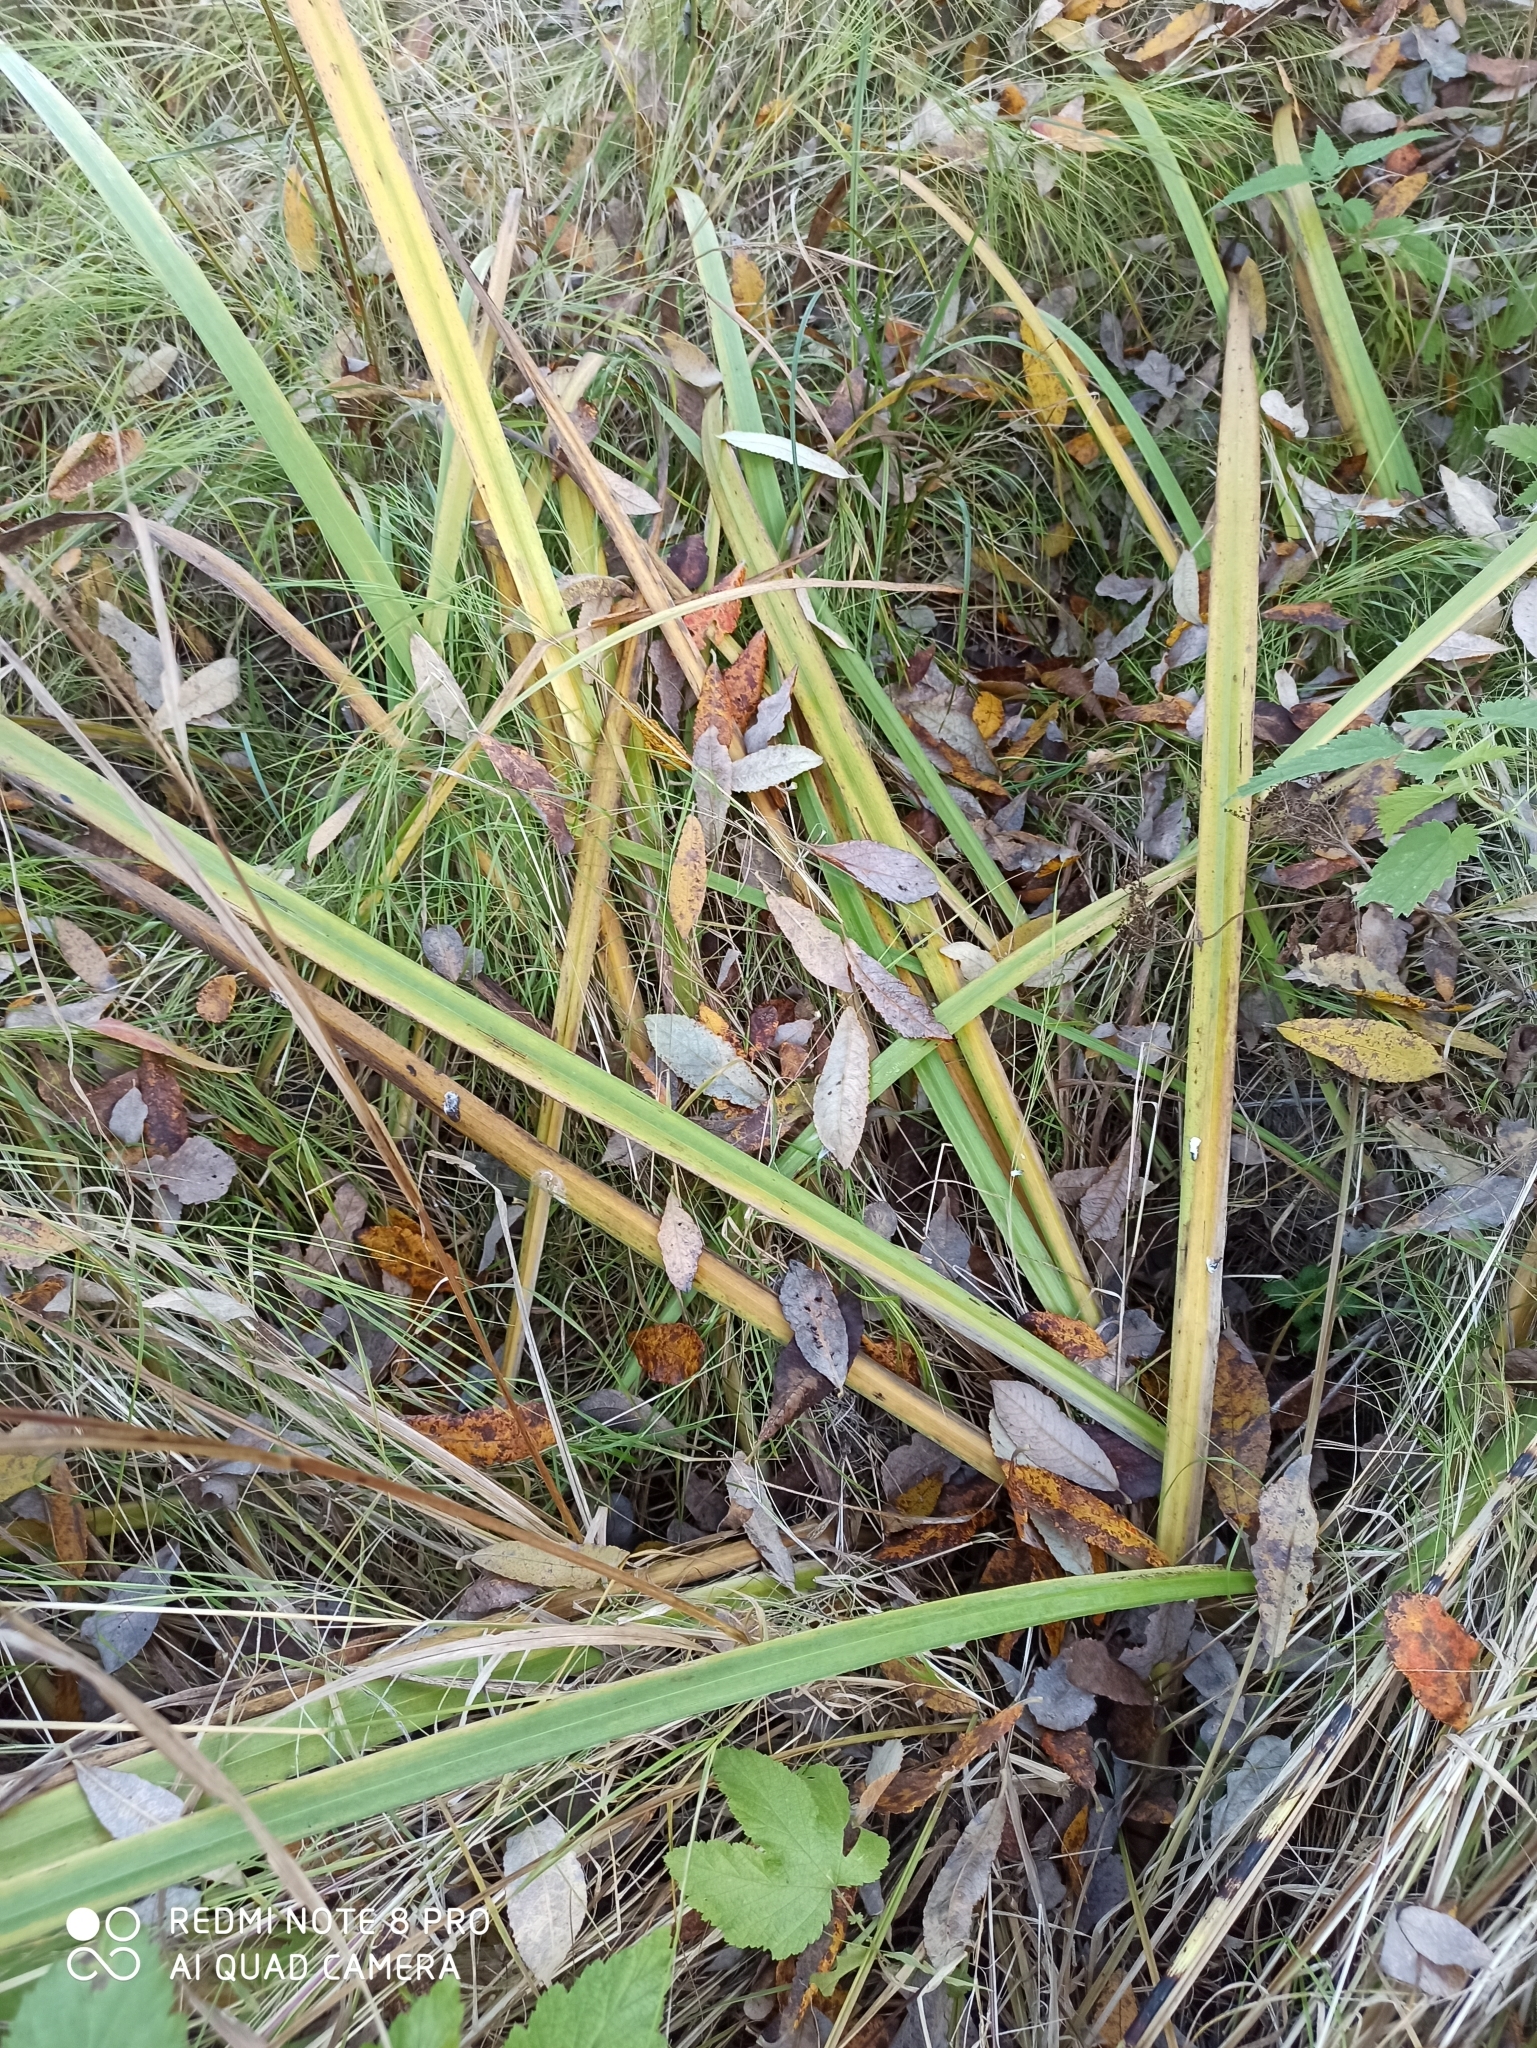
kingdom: Plantae
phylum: Tracheophyta
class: Liliopsida
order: Asparagales
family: Iridaceae
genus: Iris
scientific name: Iris pseudacorus
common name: Yellow flag
